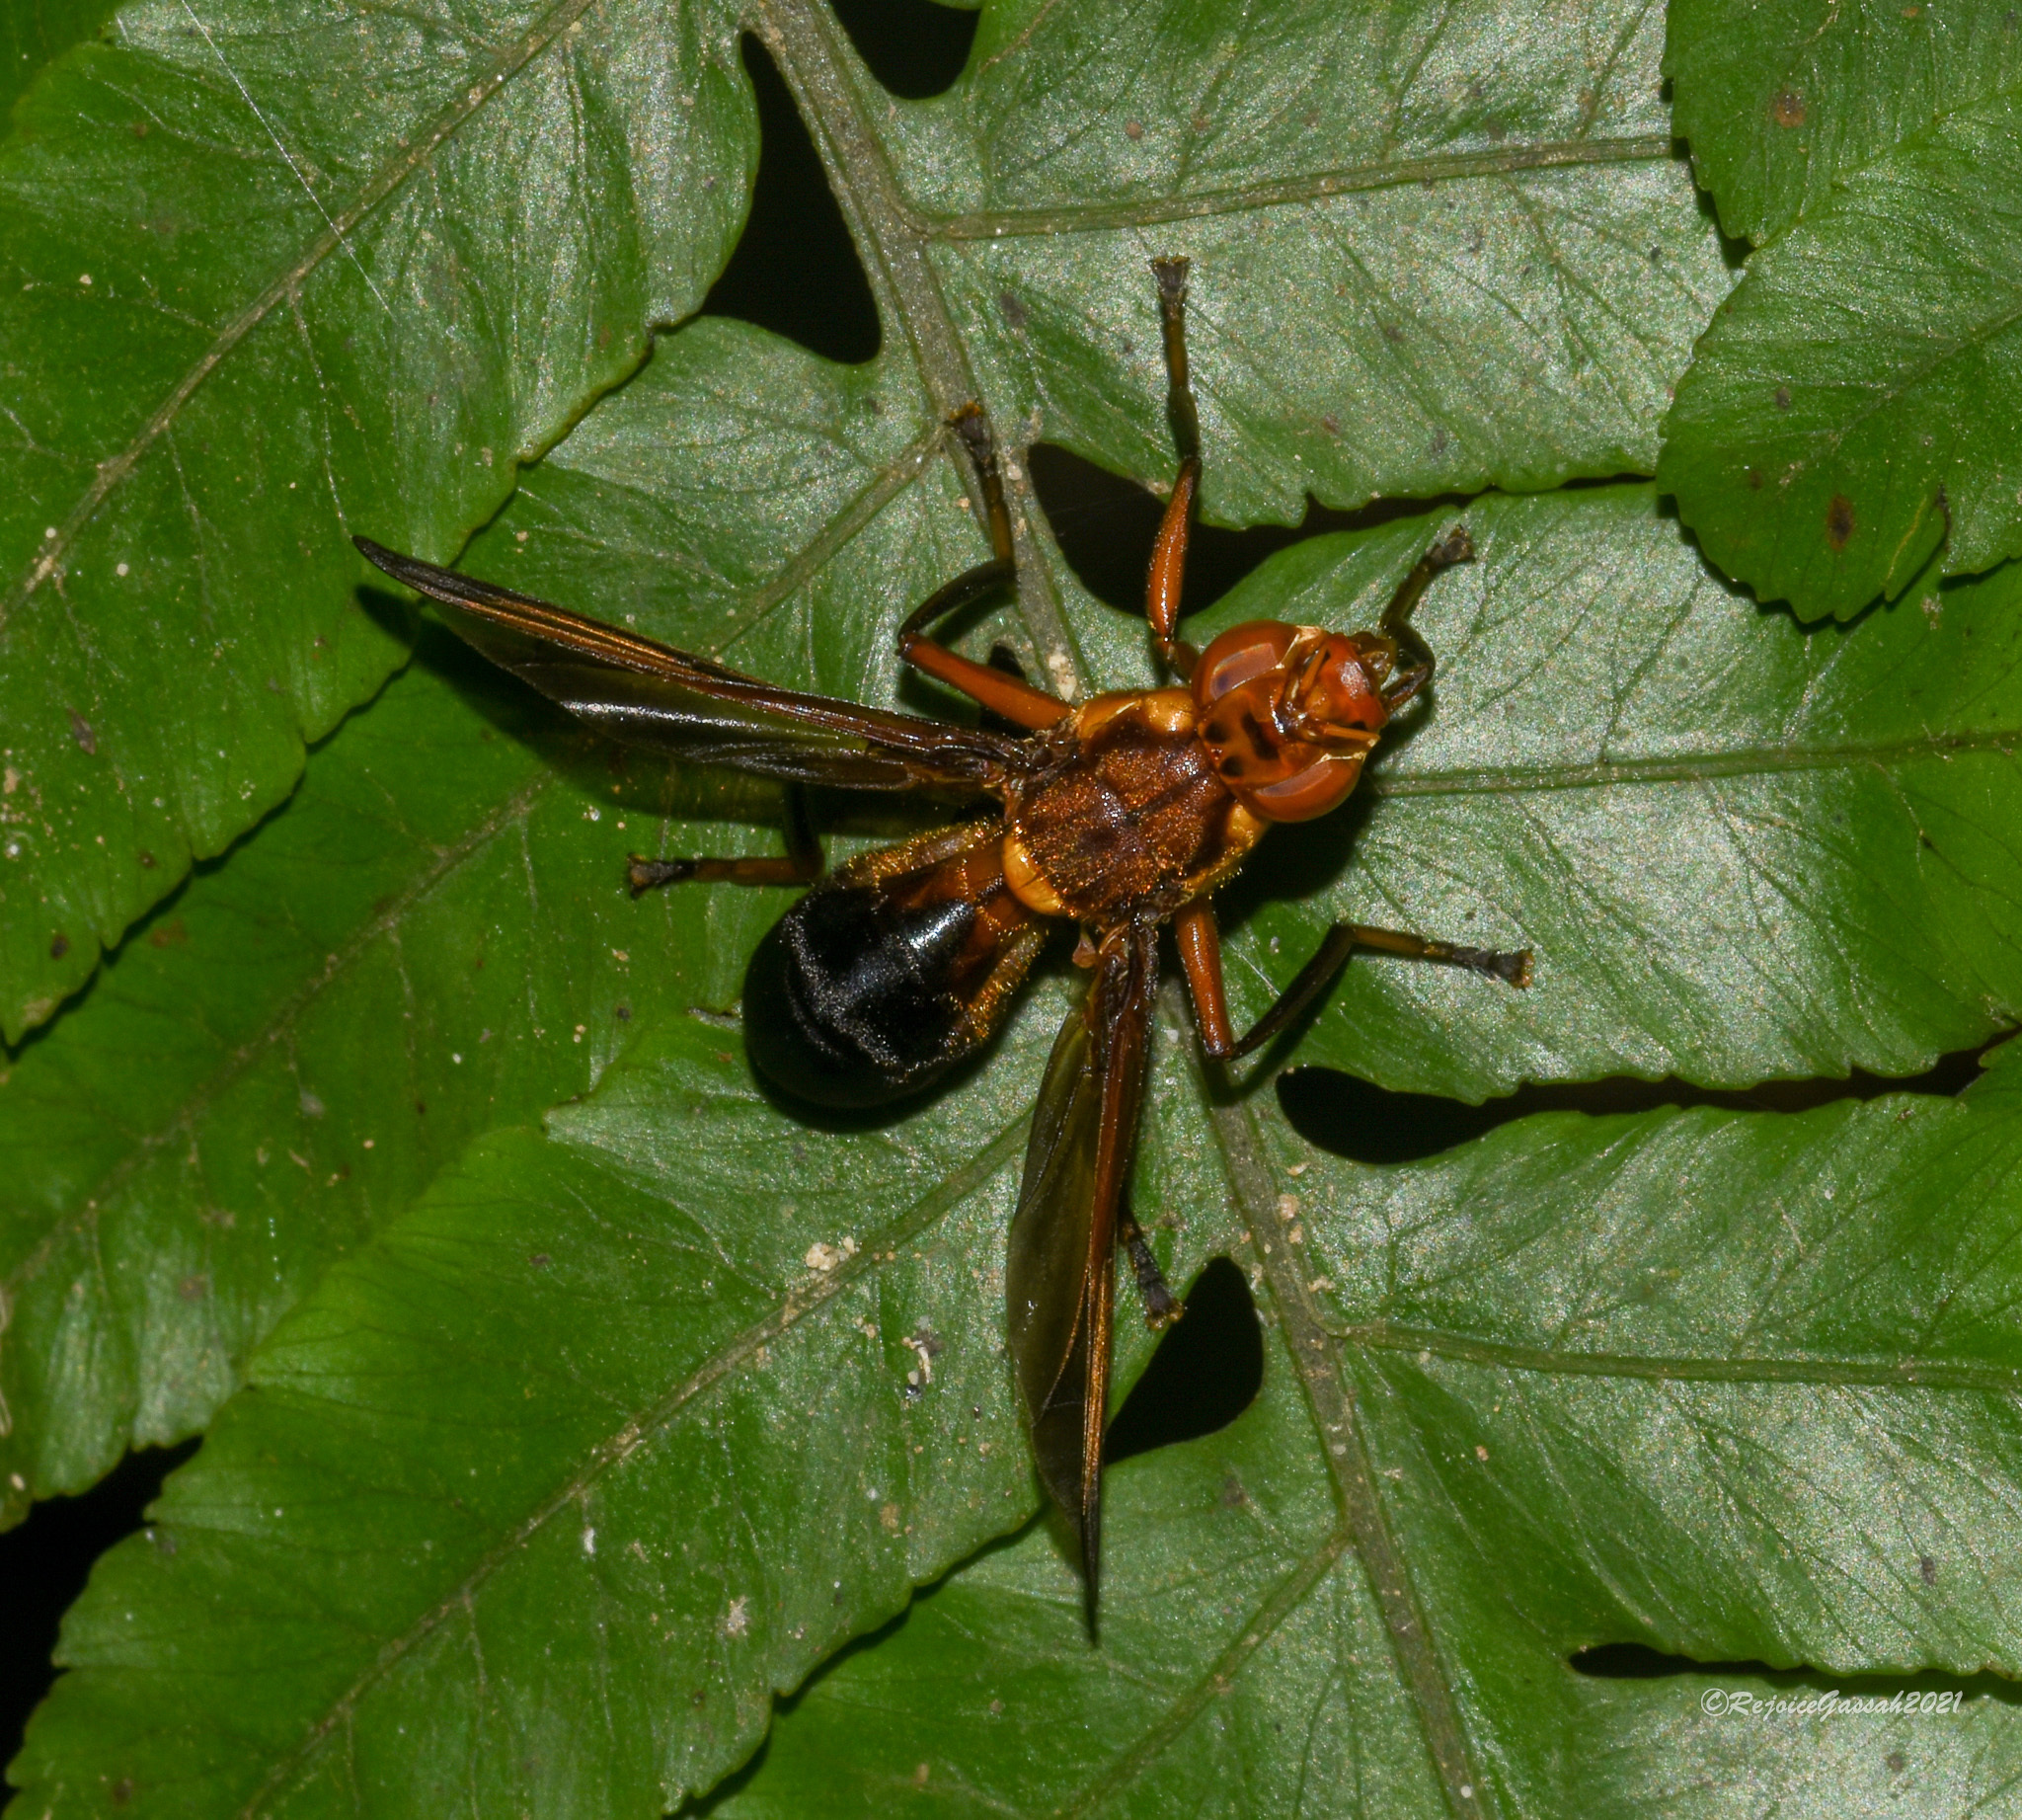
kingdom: Animalia
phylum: Arthropoda
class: Insecta
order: Diptera
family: Platystomatidae
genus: Xenaspis
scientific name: Xenaspis pictipennis
